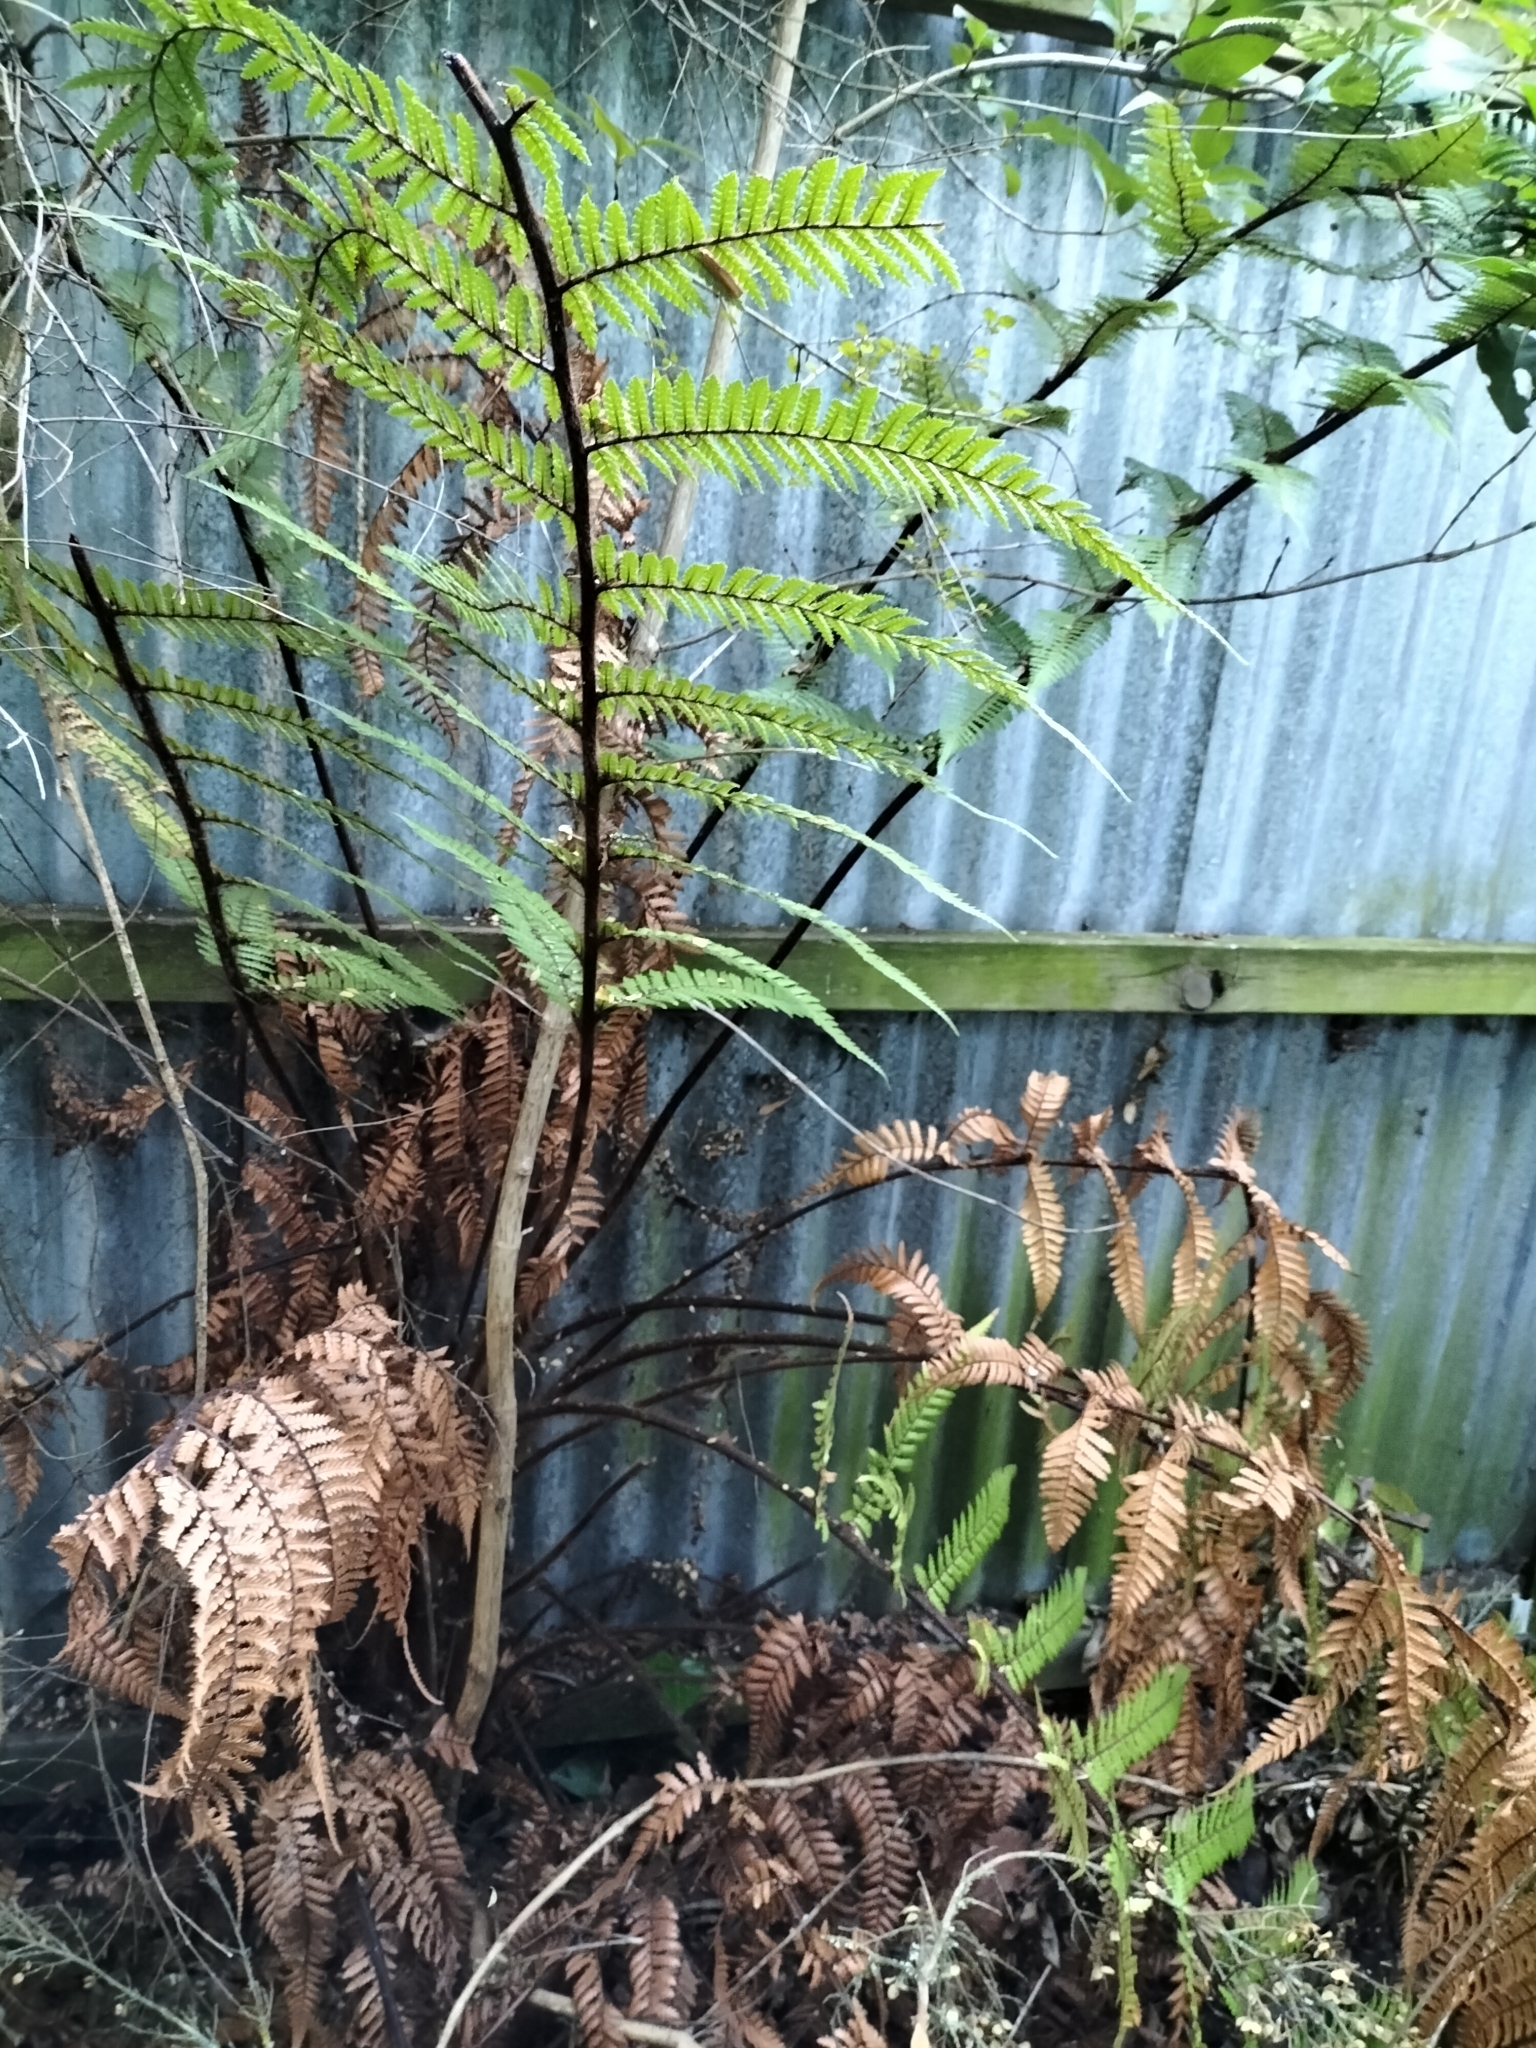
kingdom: Plantae
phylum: Tracheophyta
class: Polypodiopsida
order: Cyatheales
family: Dicksoniaceae
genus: Dicksonia
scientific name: Dicksonia squarrosa
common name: Hard treefern
